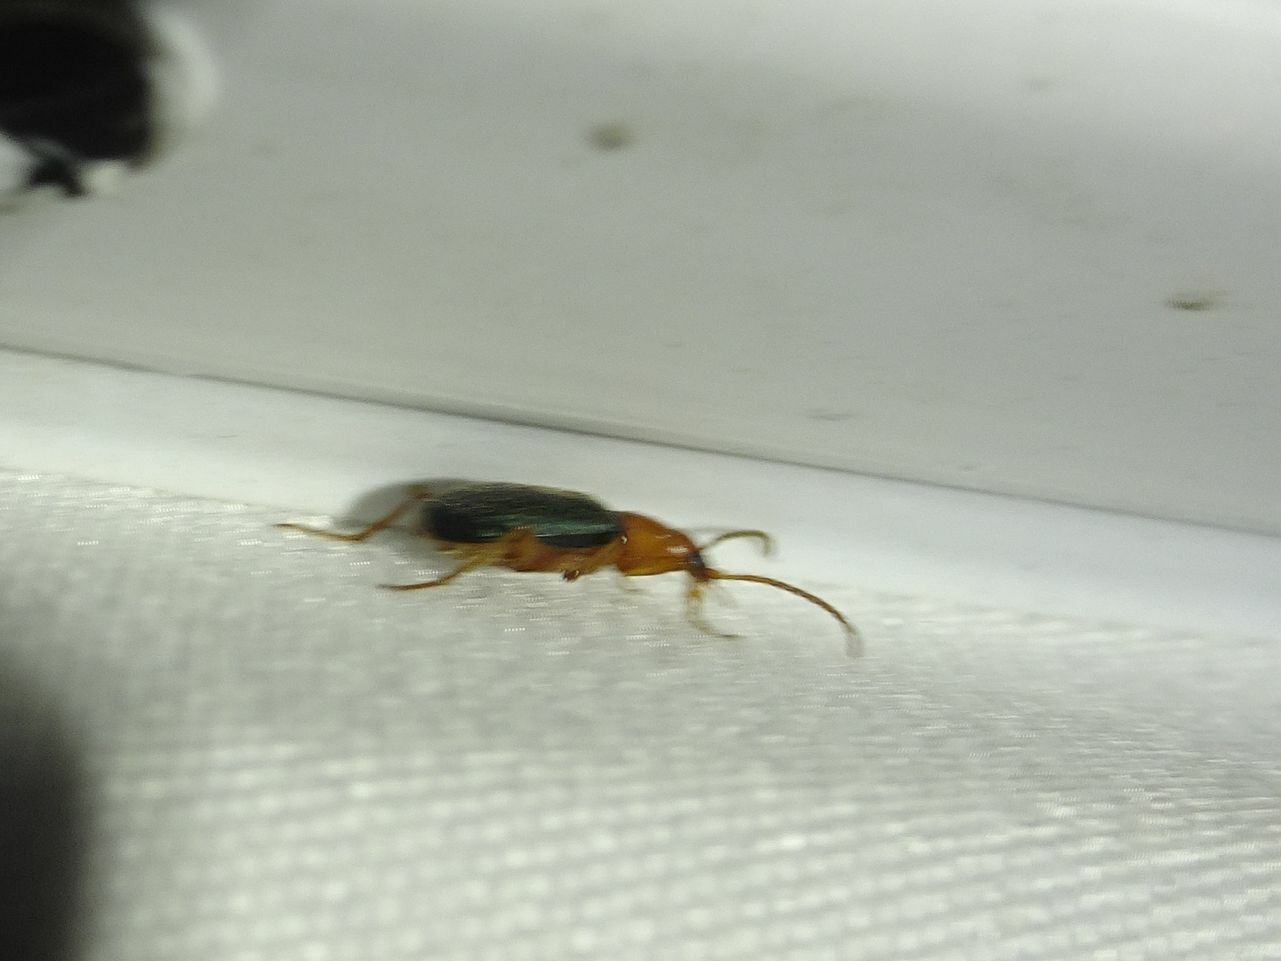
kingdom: Animalia
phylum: Arthropoda
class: Insecta
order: Coleoptera
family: Carabidae
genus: Brachinus
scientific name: Brachinus sclopeta
